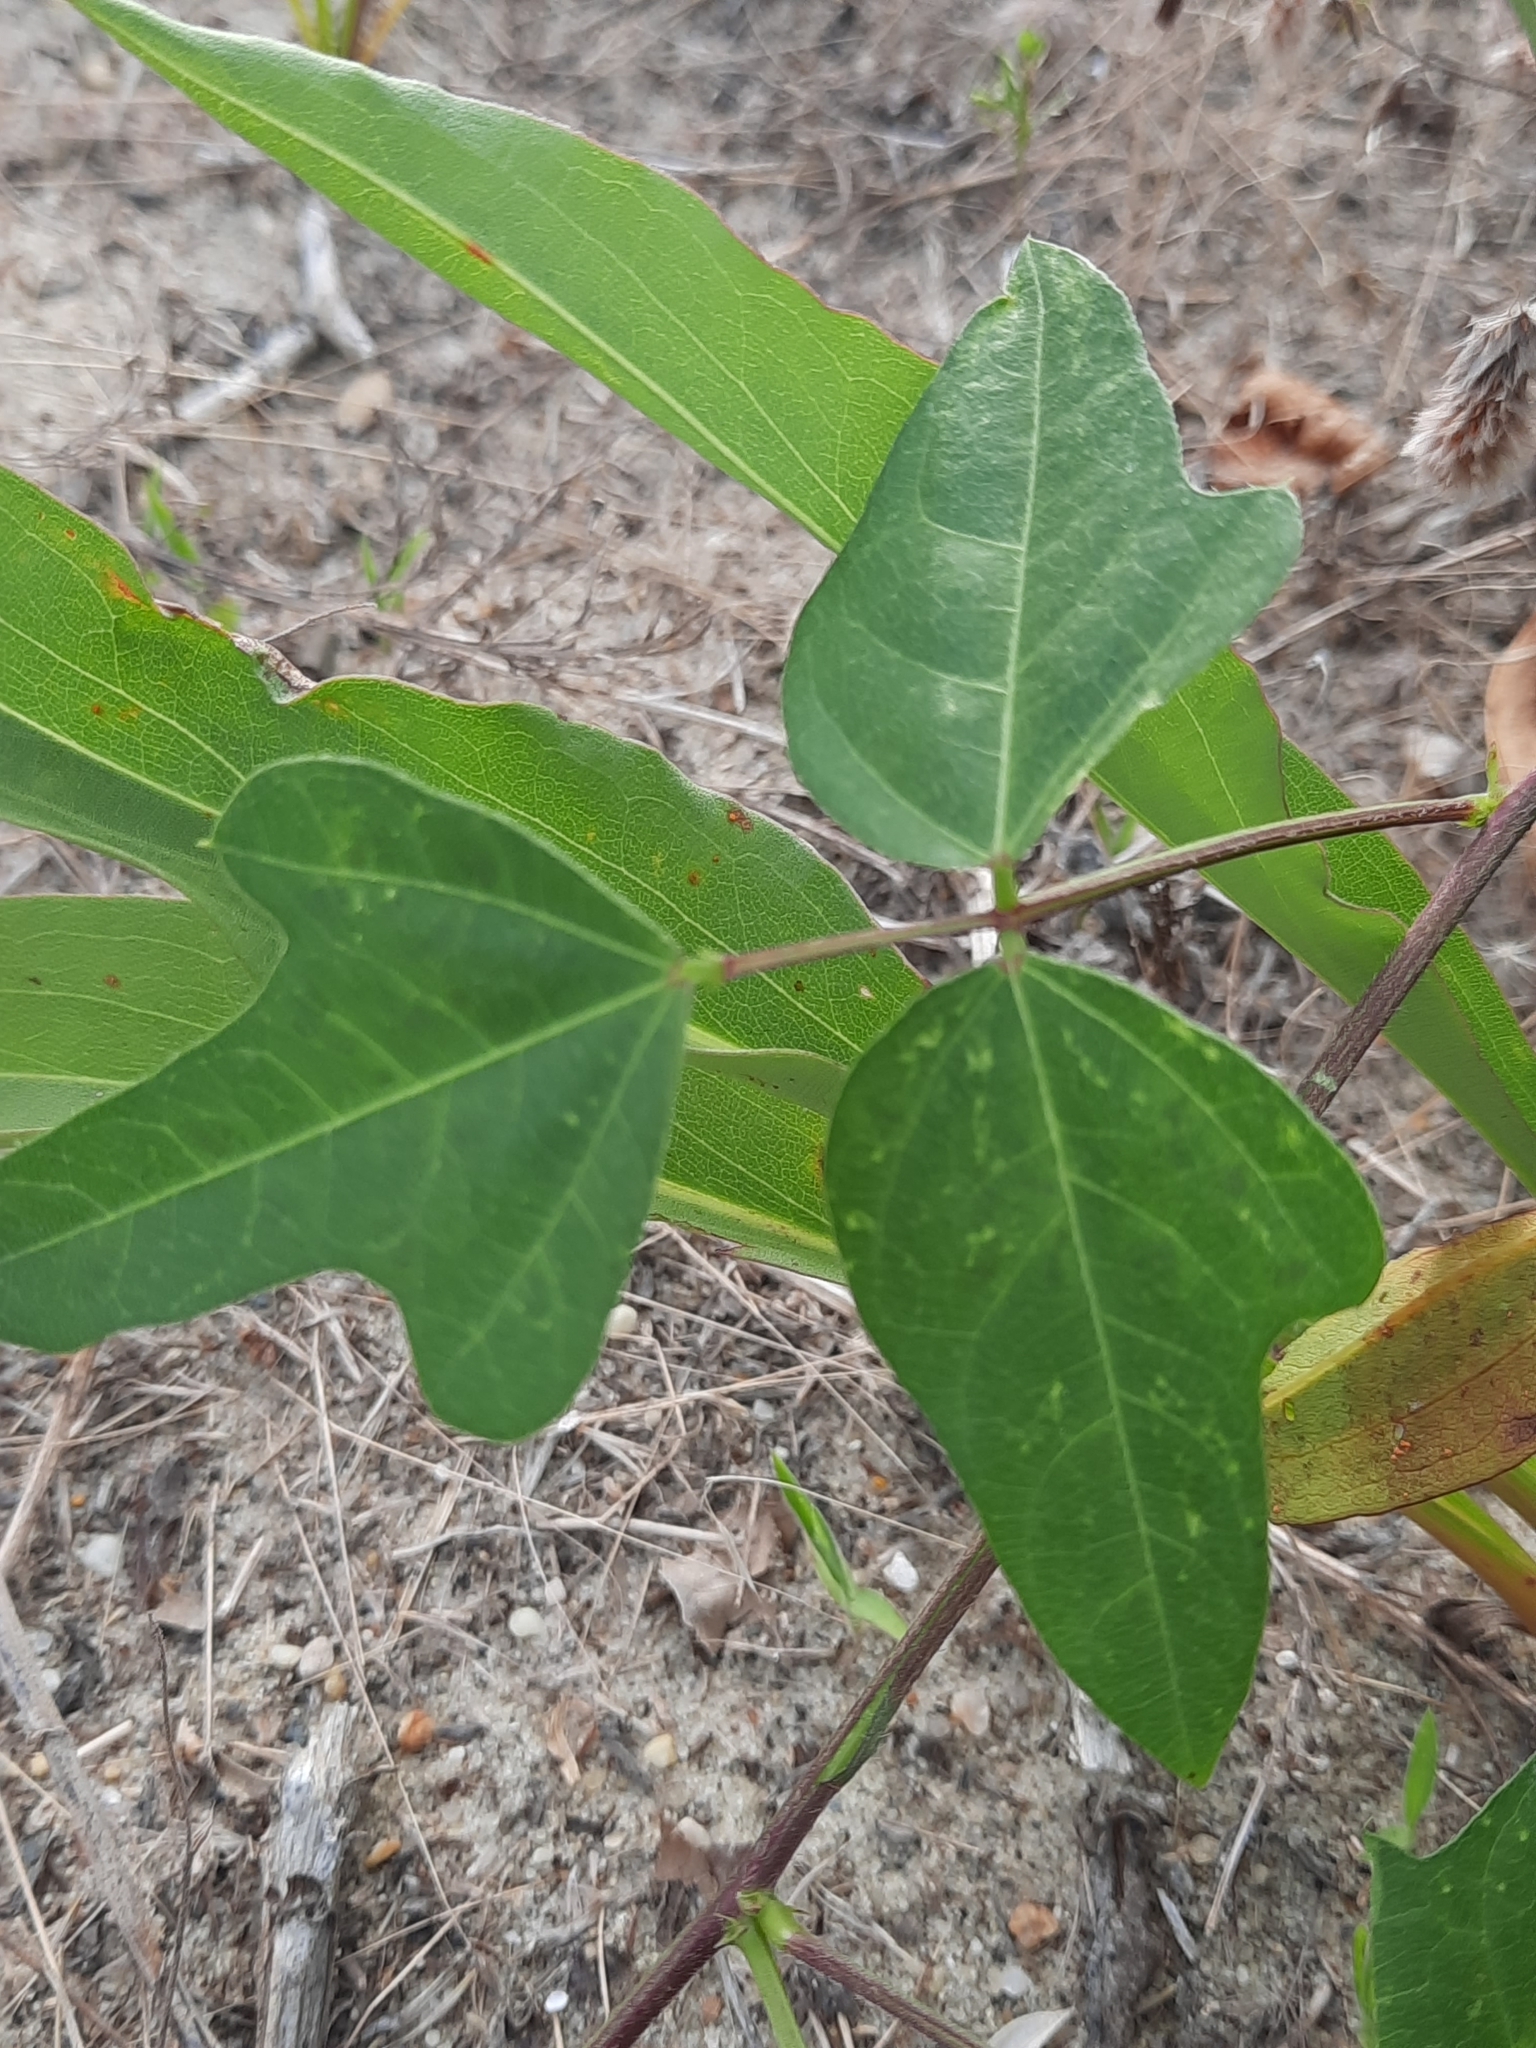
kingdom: Plantae
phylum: Tracheophyta
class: Magnoliopsida
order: Fabales
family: Fabaceae
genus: Strophostyles
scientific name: Strophostyles helvola
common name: Trailing wild bean
